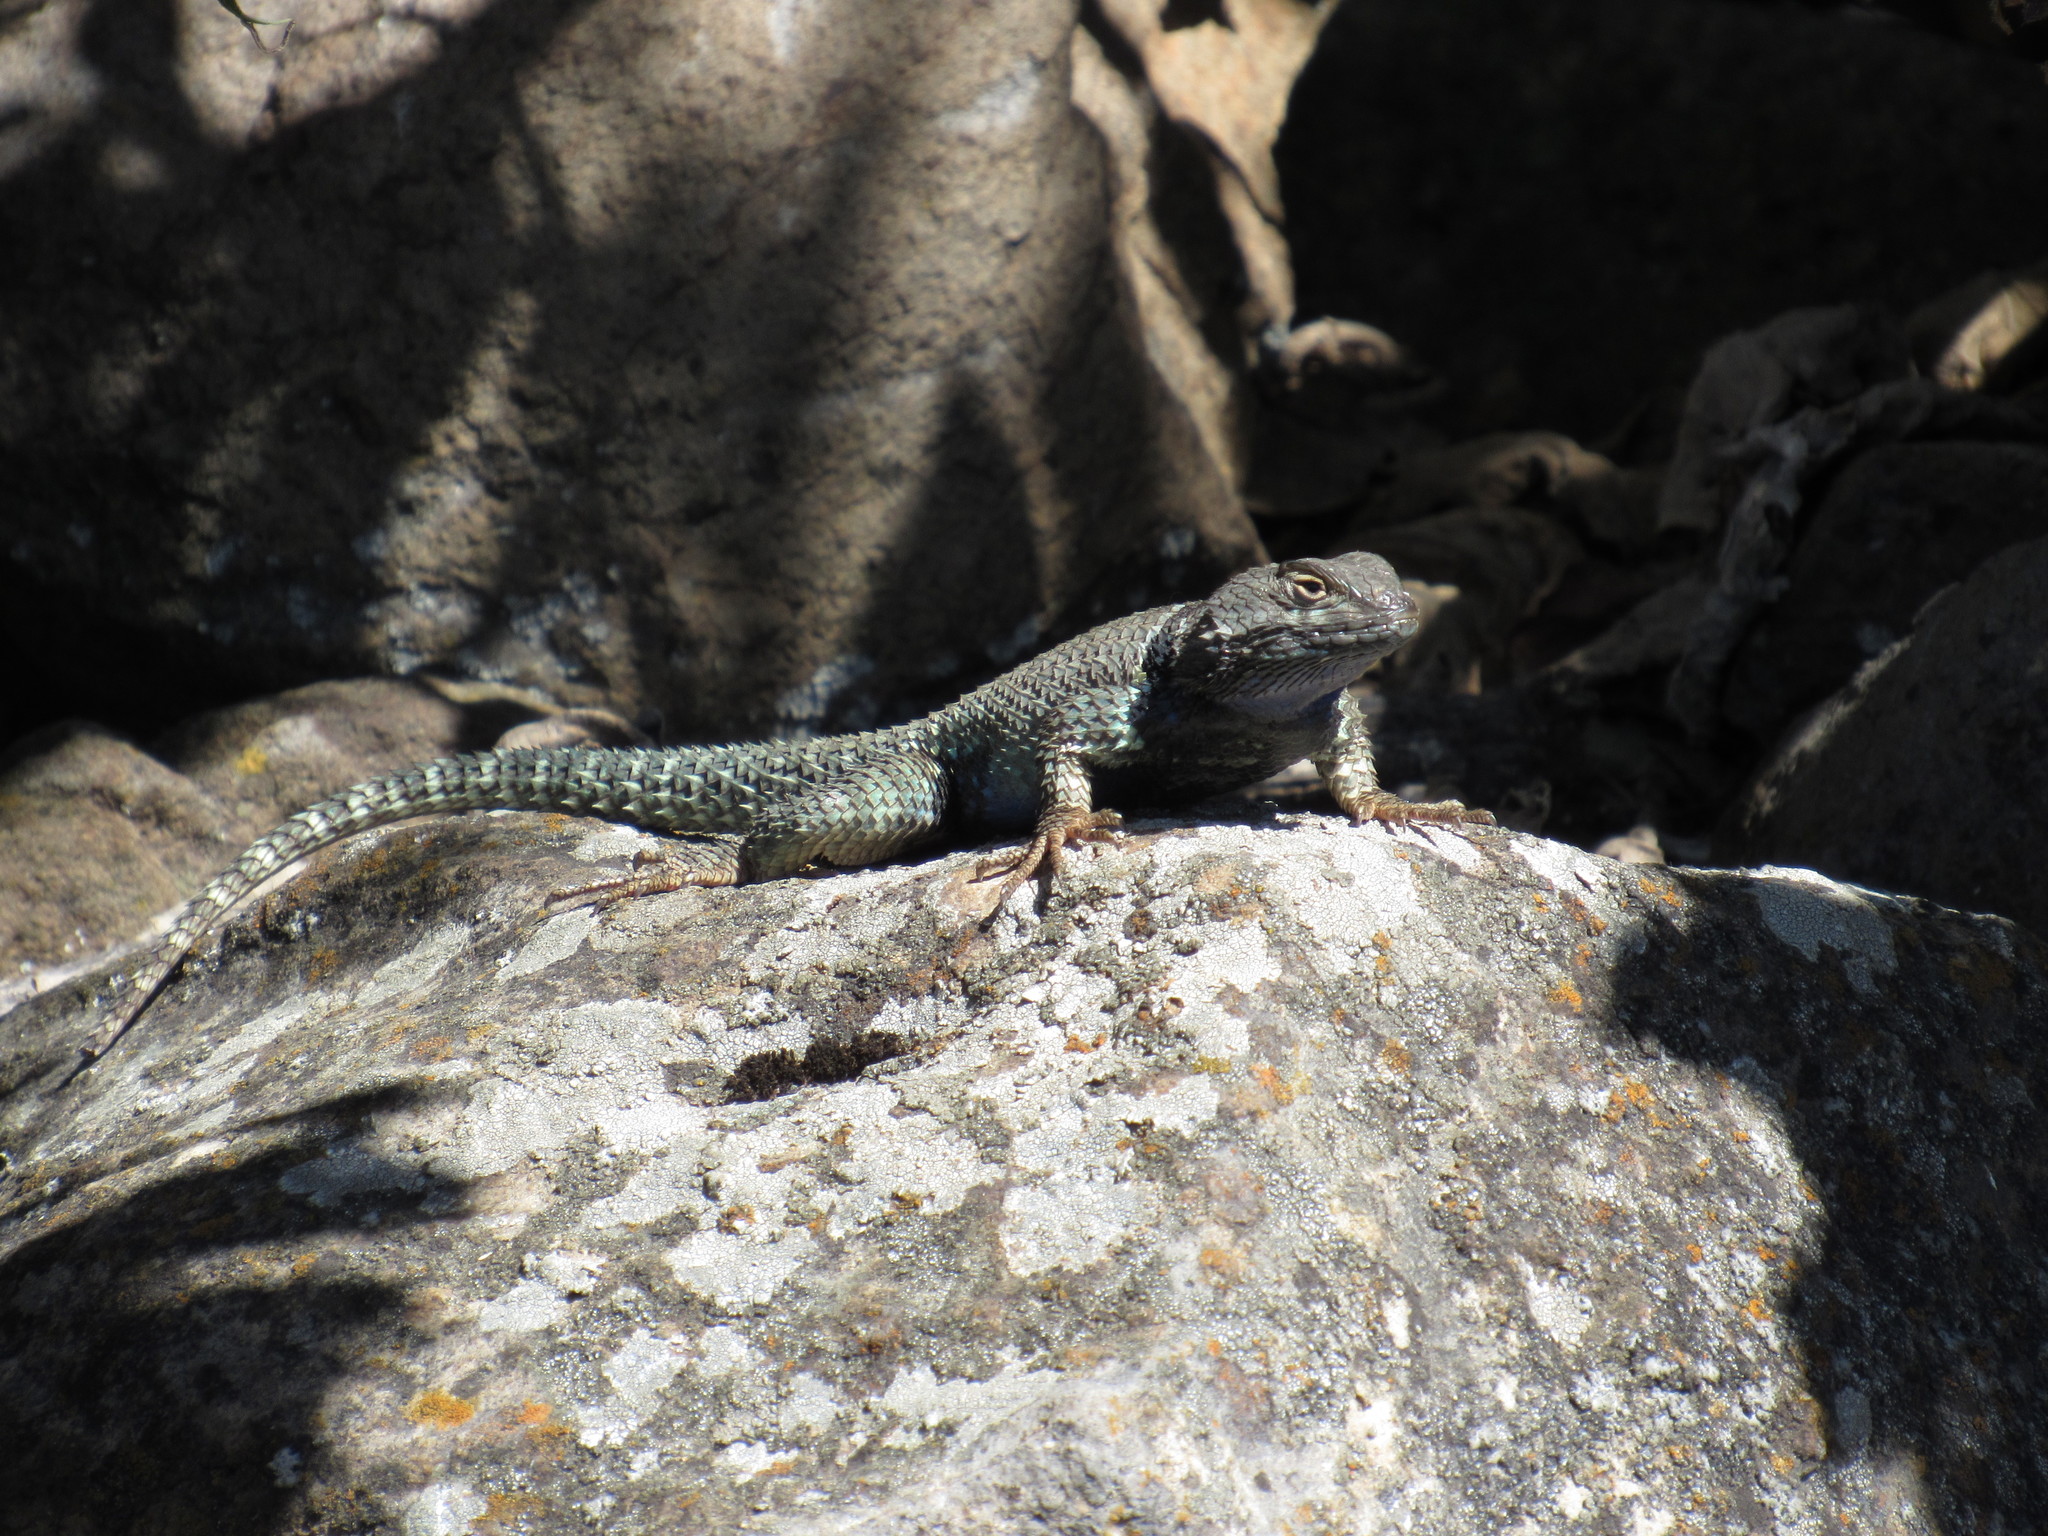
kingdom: Animalia
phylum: Chordata
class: Squamata
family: Phrynosomatidae
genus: Sceloporus
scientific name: Sceloporus torquatus
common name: Central plateau torquate lizard [melanogaster]
